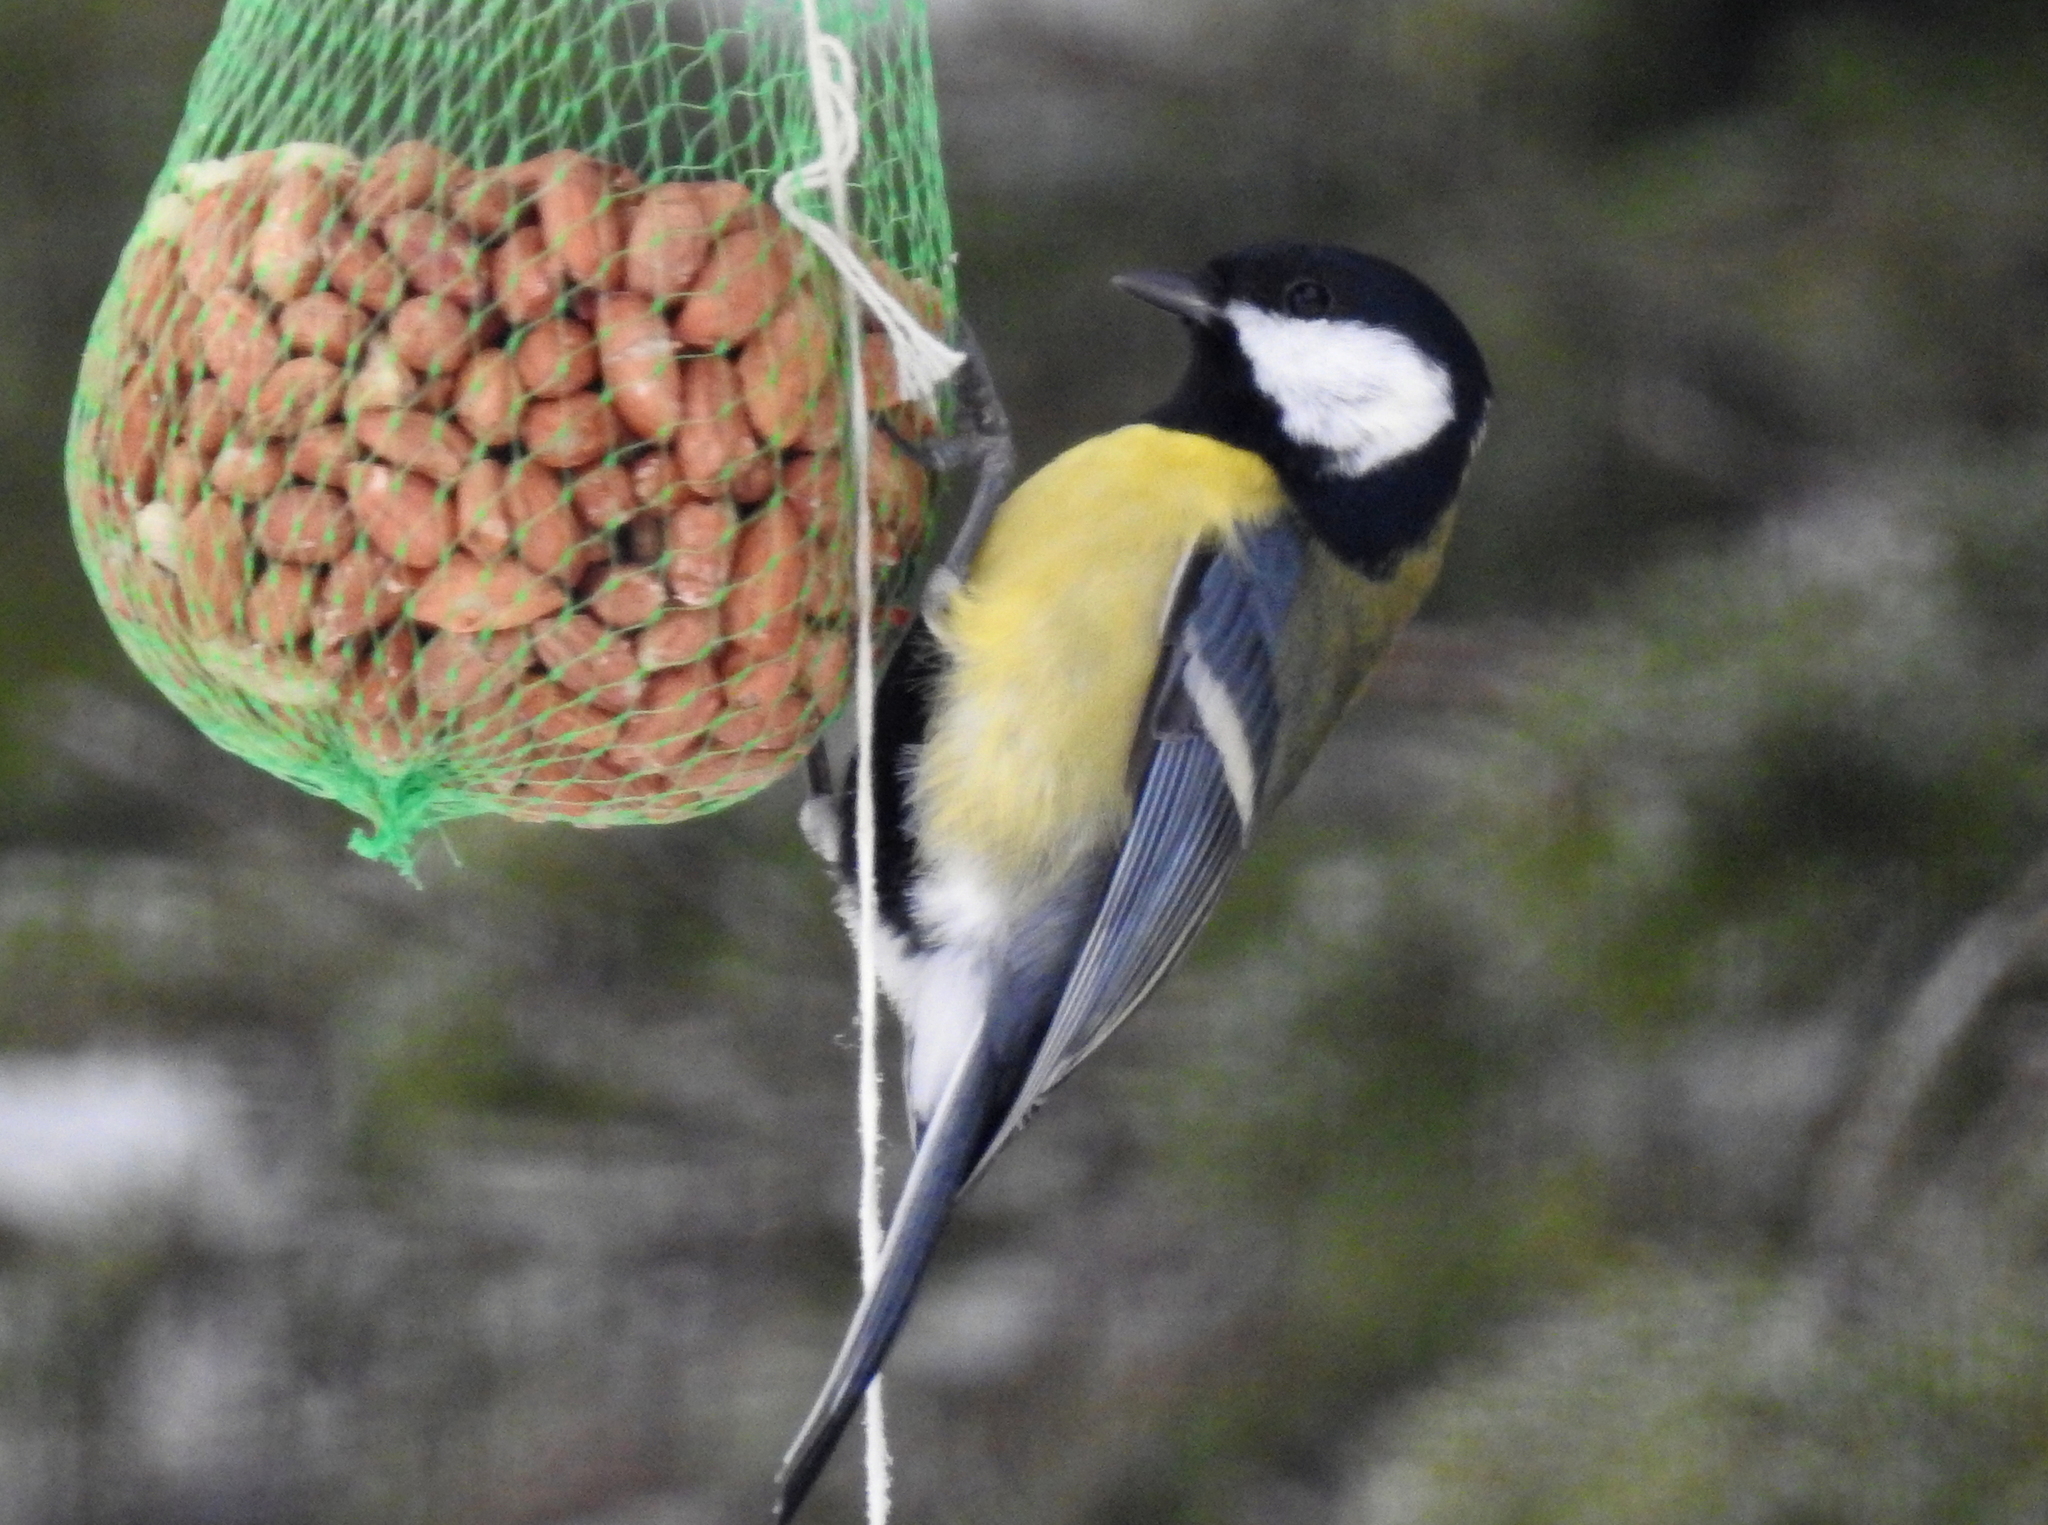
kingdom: Animalia
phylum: Chordata
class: Aves
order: Passeriformes
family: Paridae
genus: Parus
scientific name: Parus major
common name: Great tit
